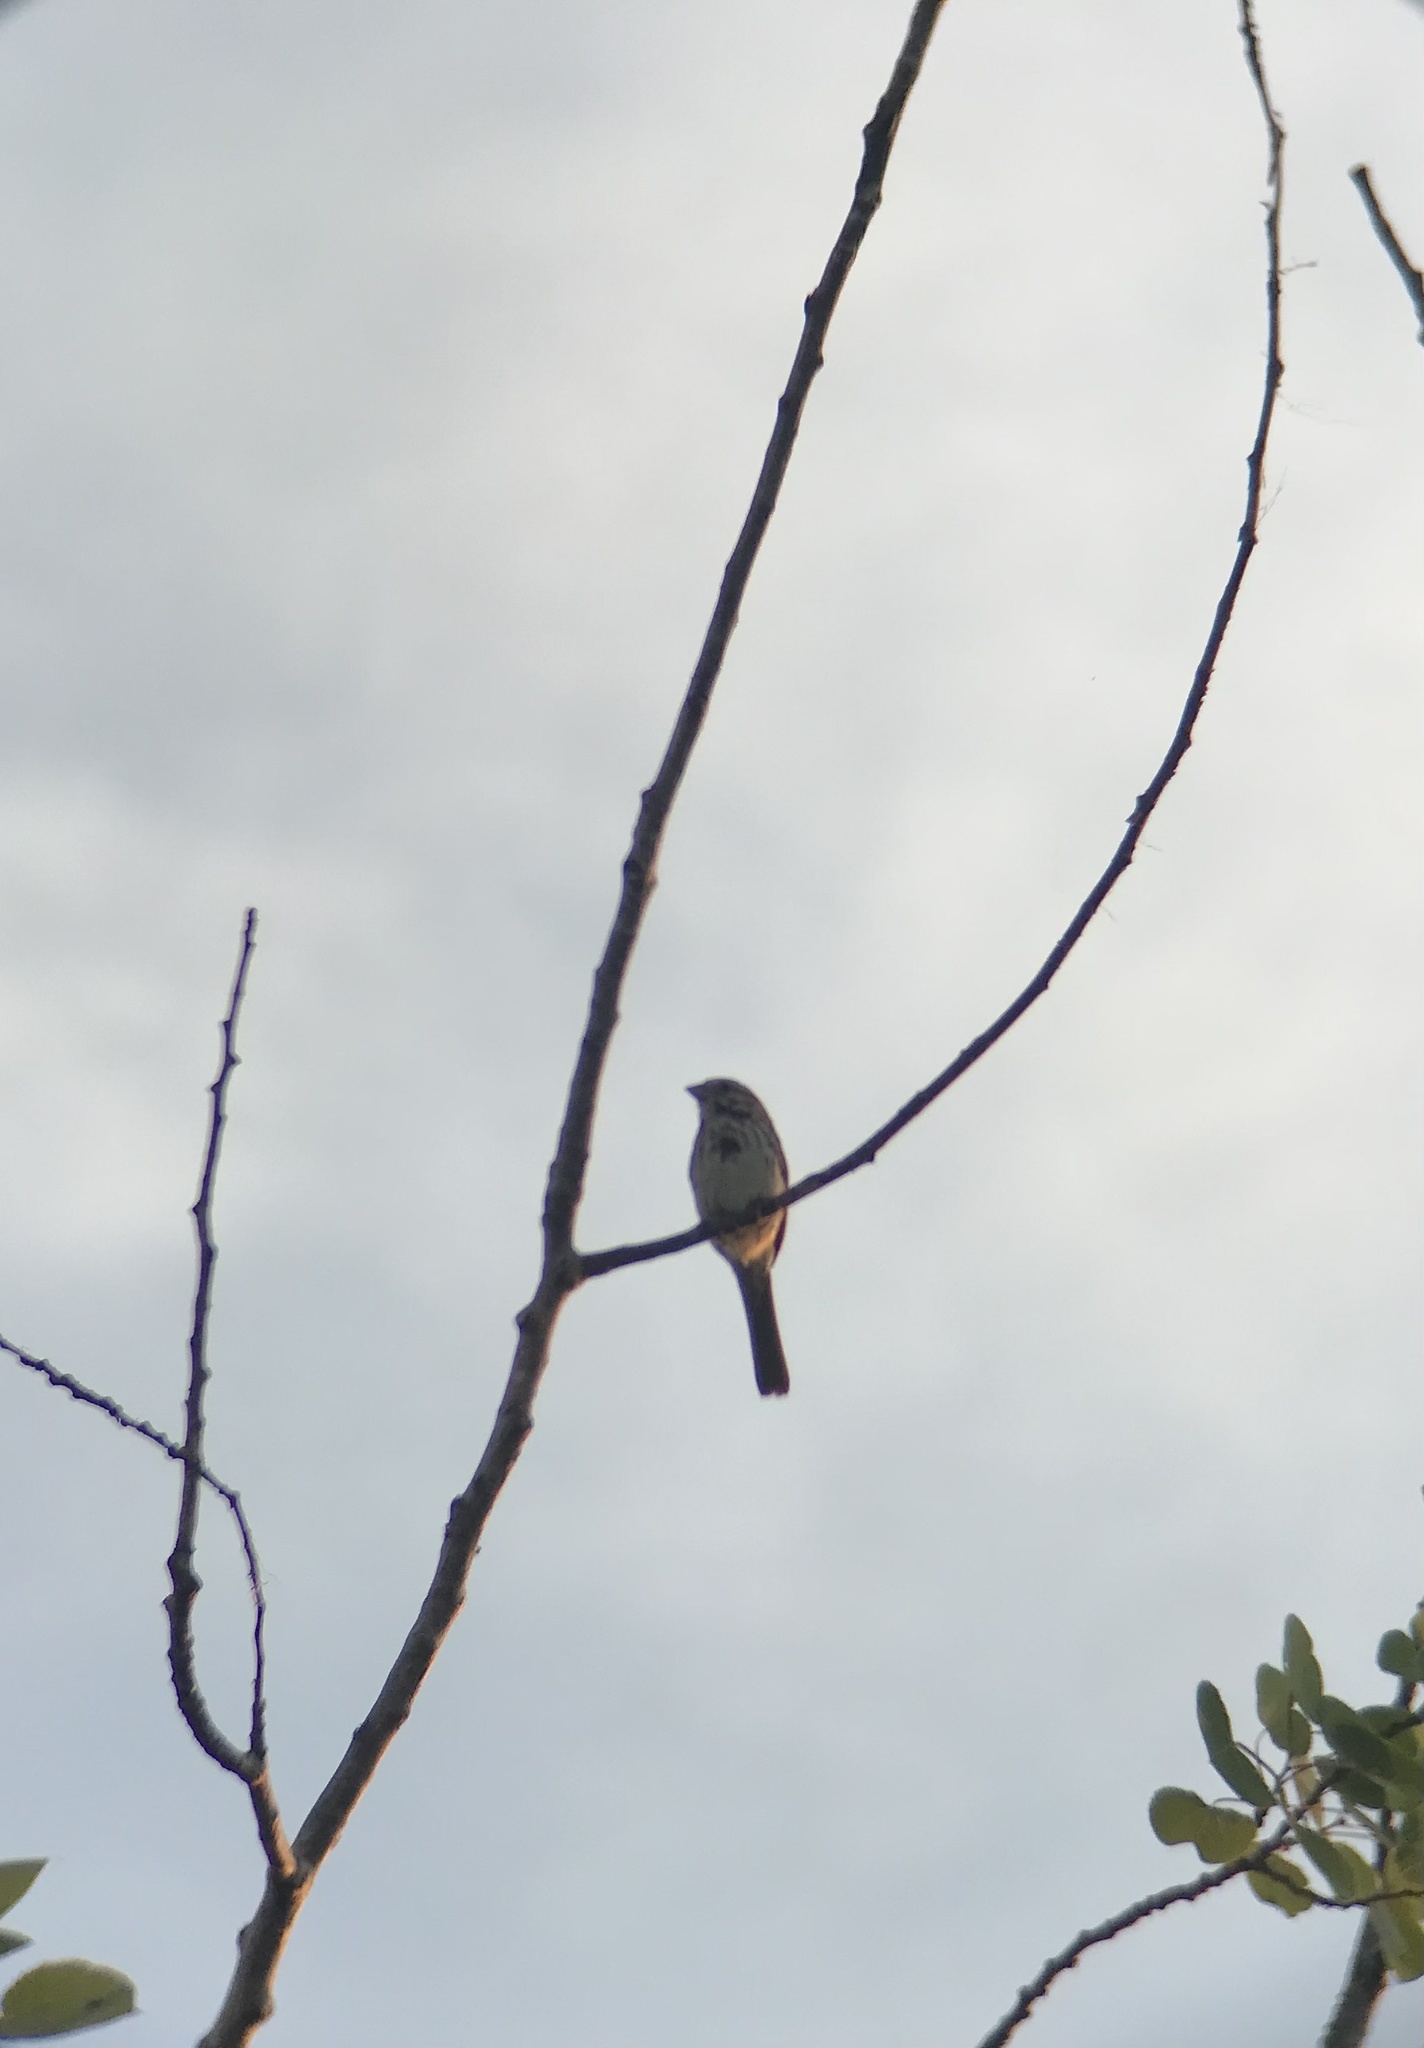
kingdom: Animalia
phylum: Chordata
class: Aves
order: Passeriformes
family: Passerellidae
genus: Melospiza
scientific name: Melospiza melodia
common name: Song sparrow
